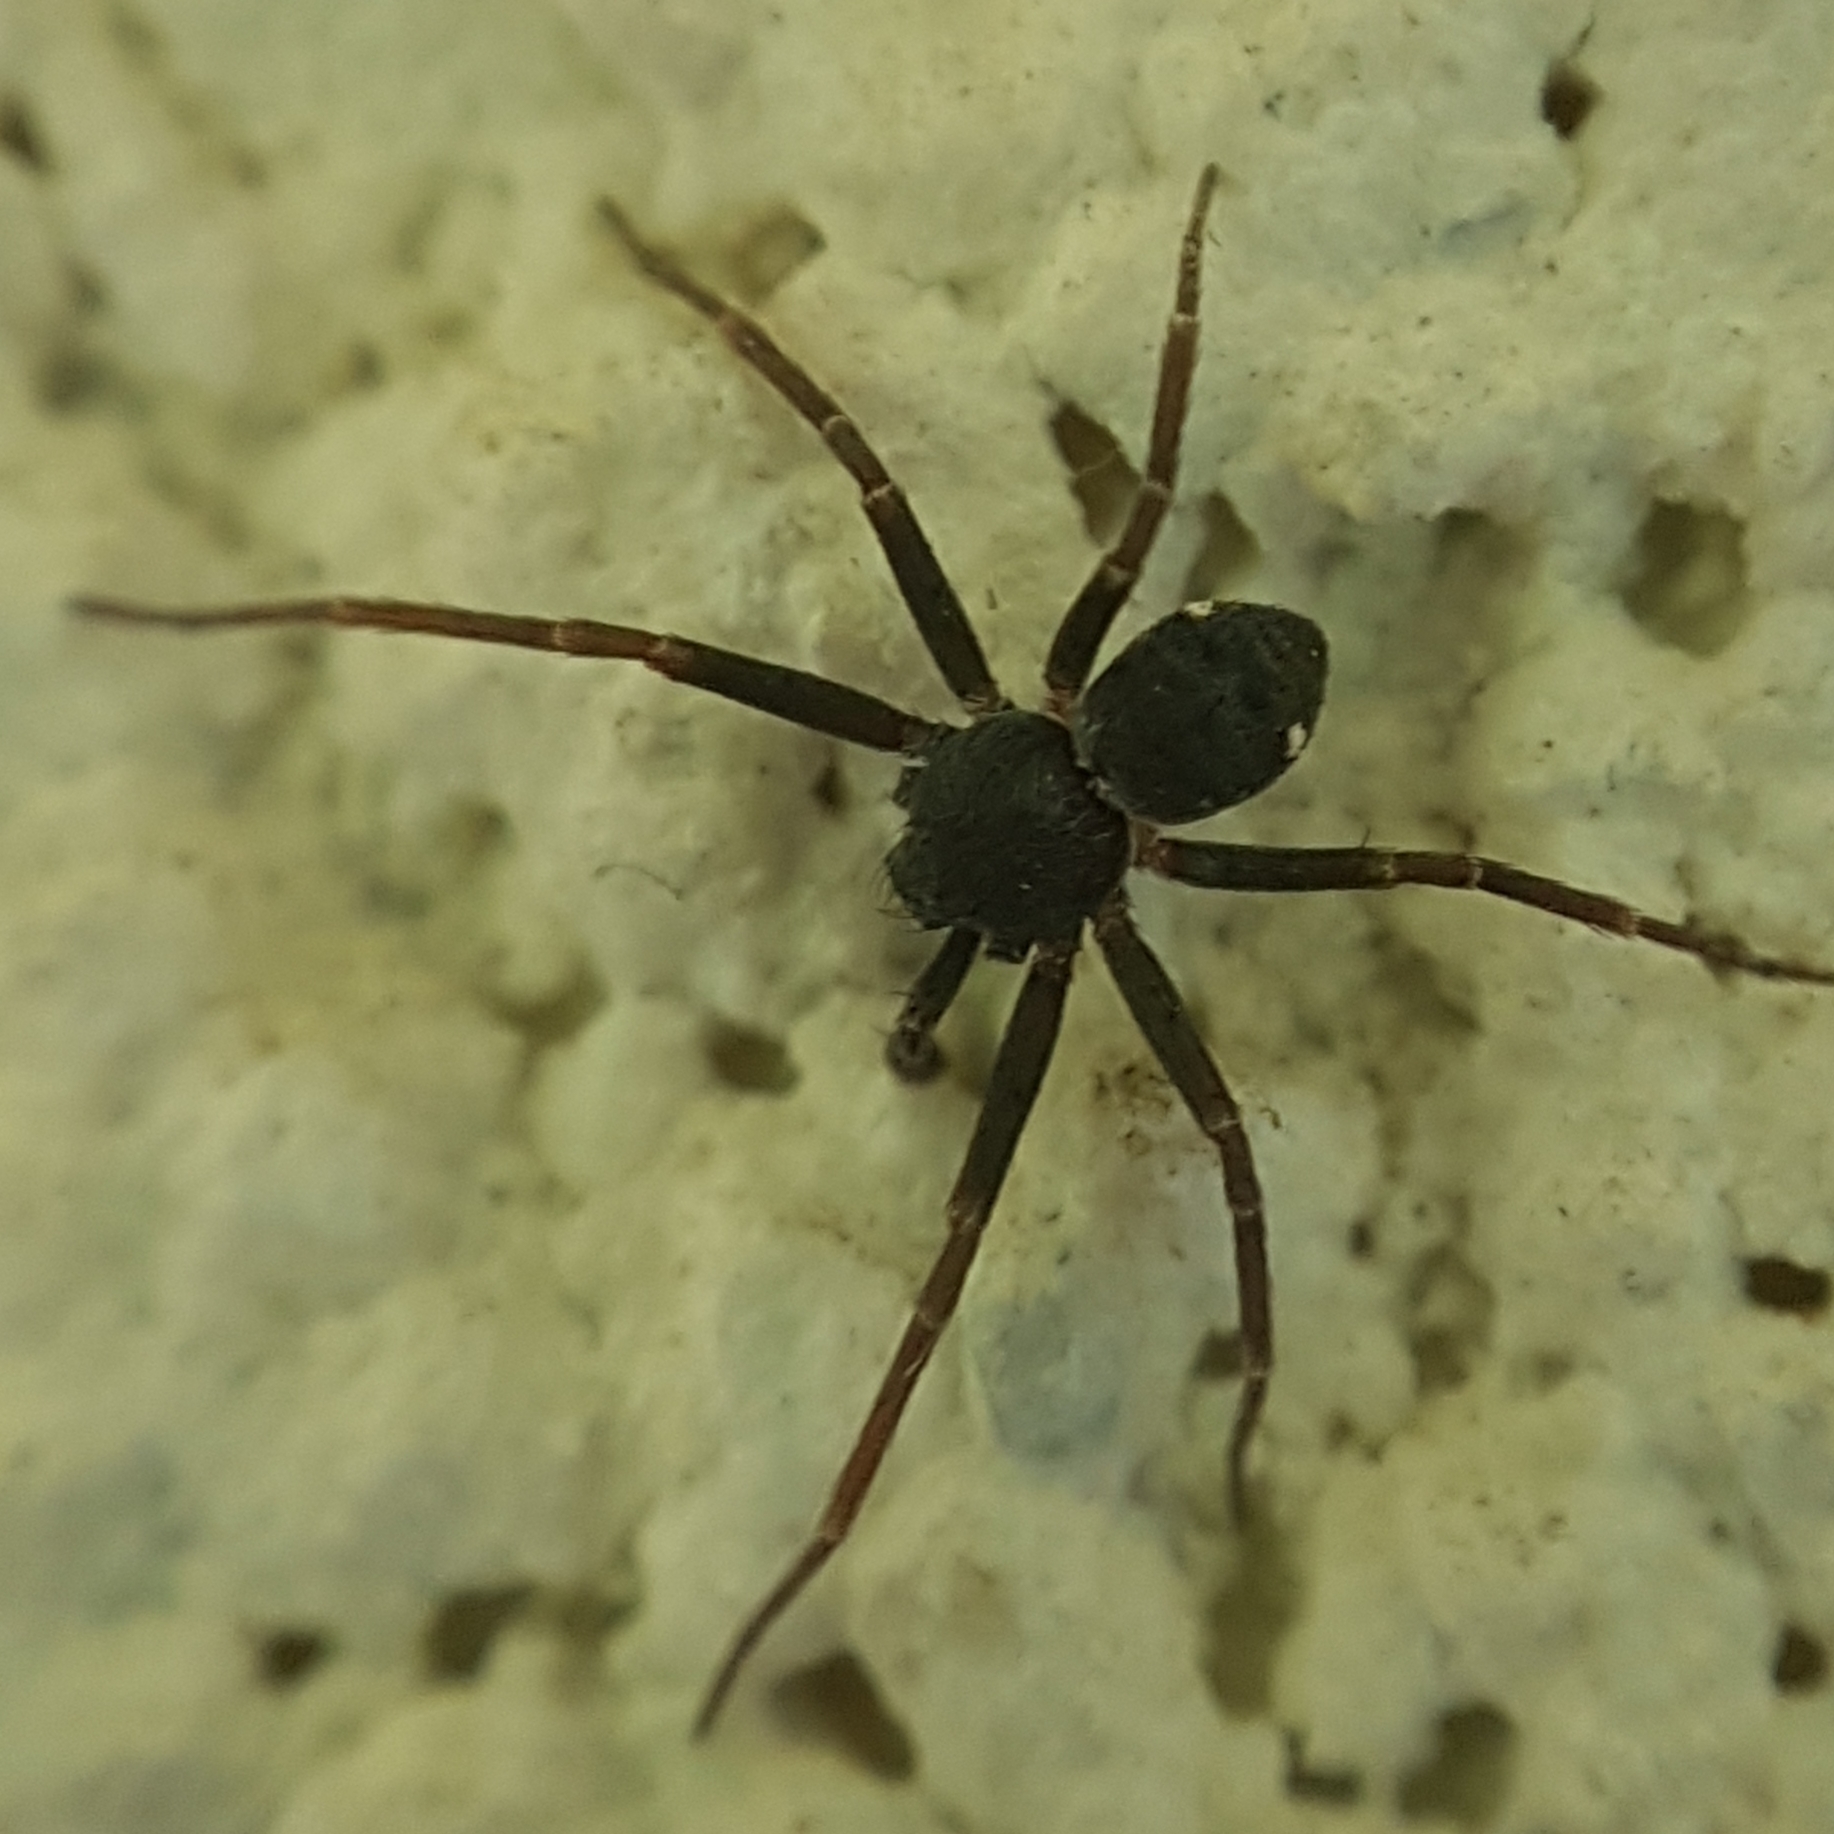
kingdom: Animalia
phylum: Arthropoda
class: Arachnida
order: Araneae
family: Philodromidae
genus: Pulchellodromus
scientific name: Pulchellodromus bistigma
